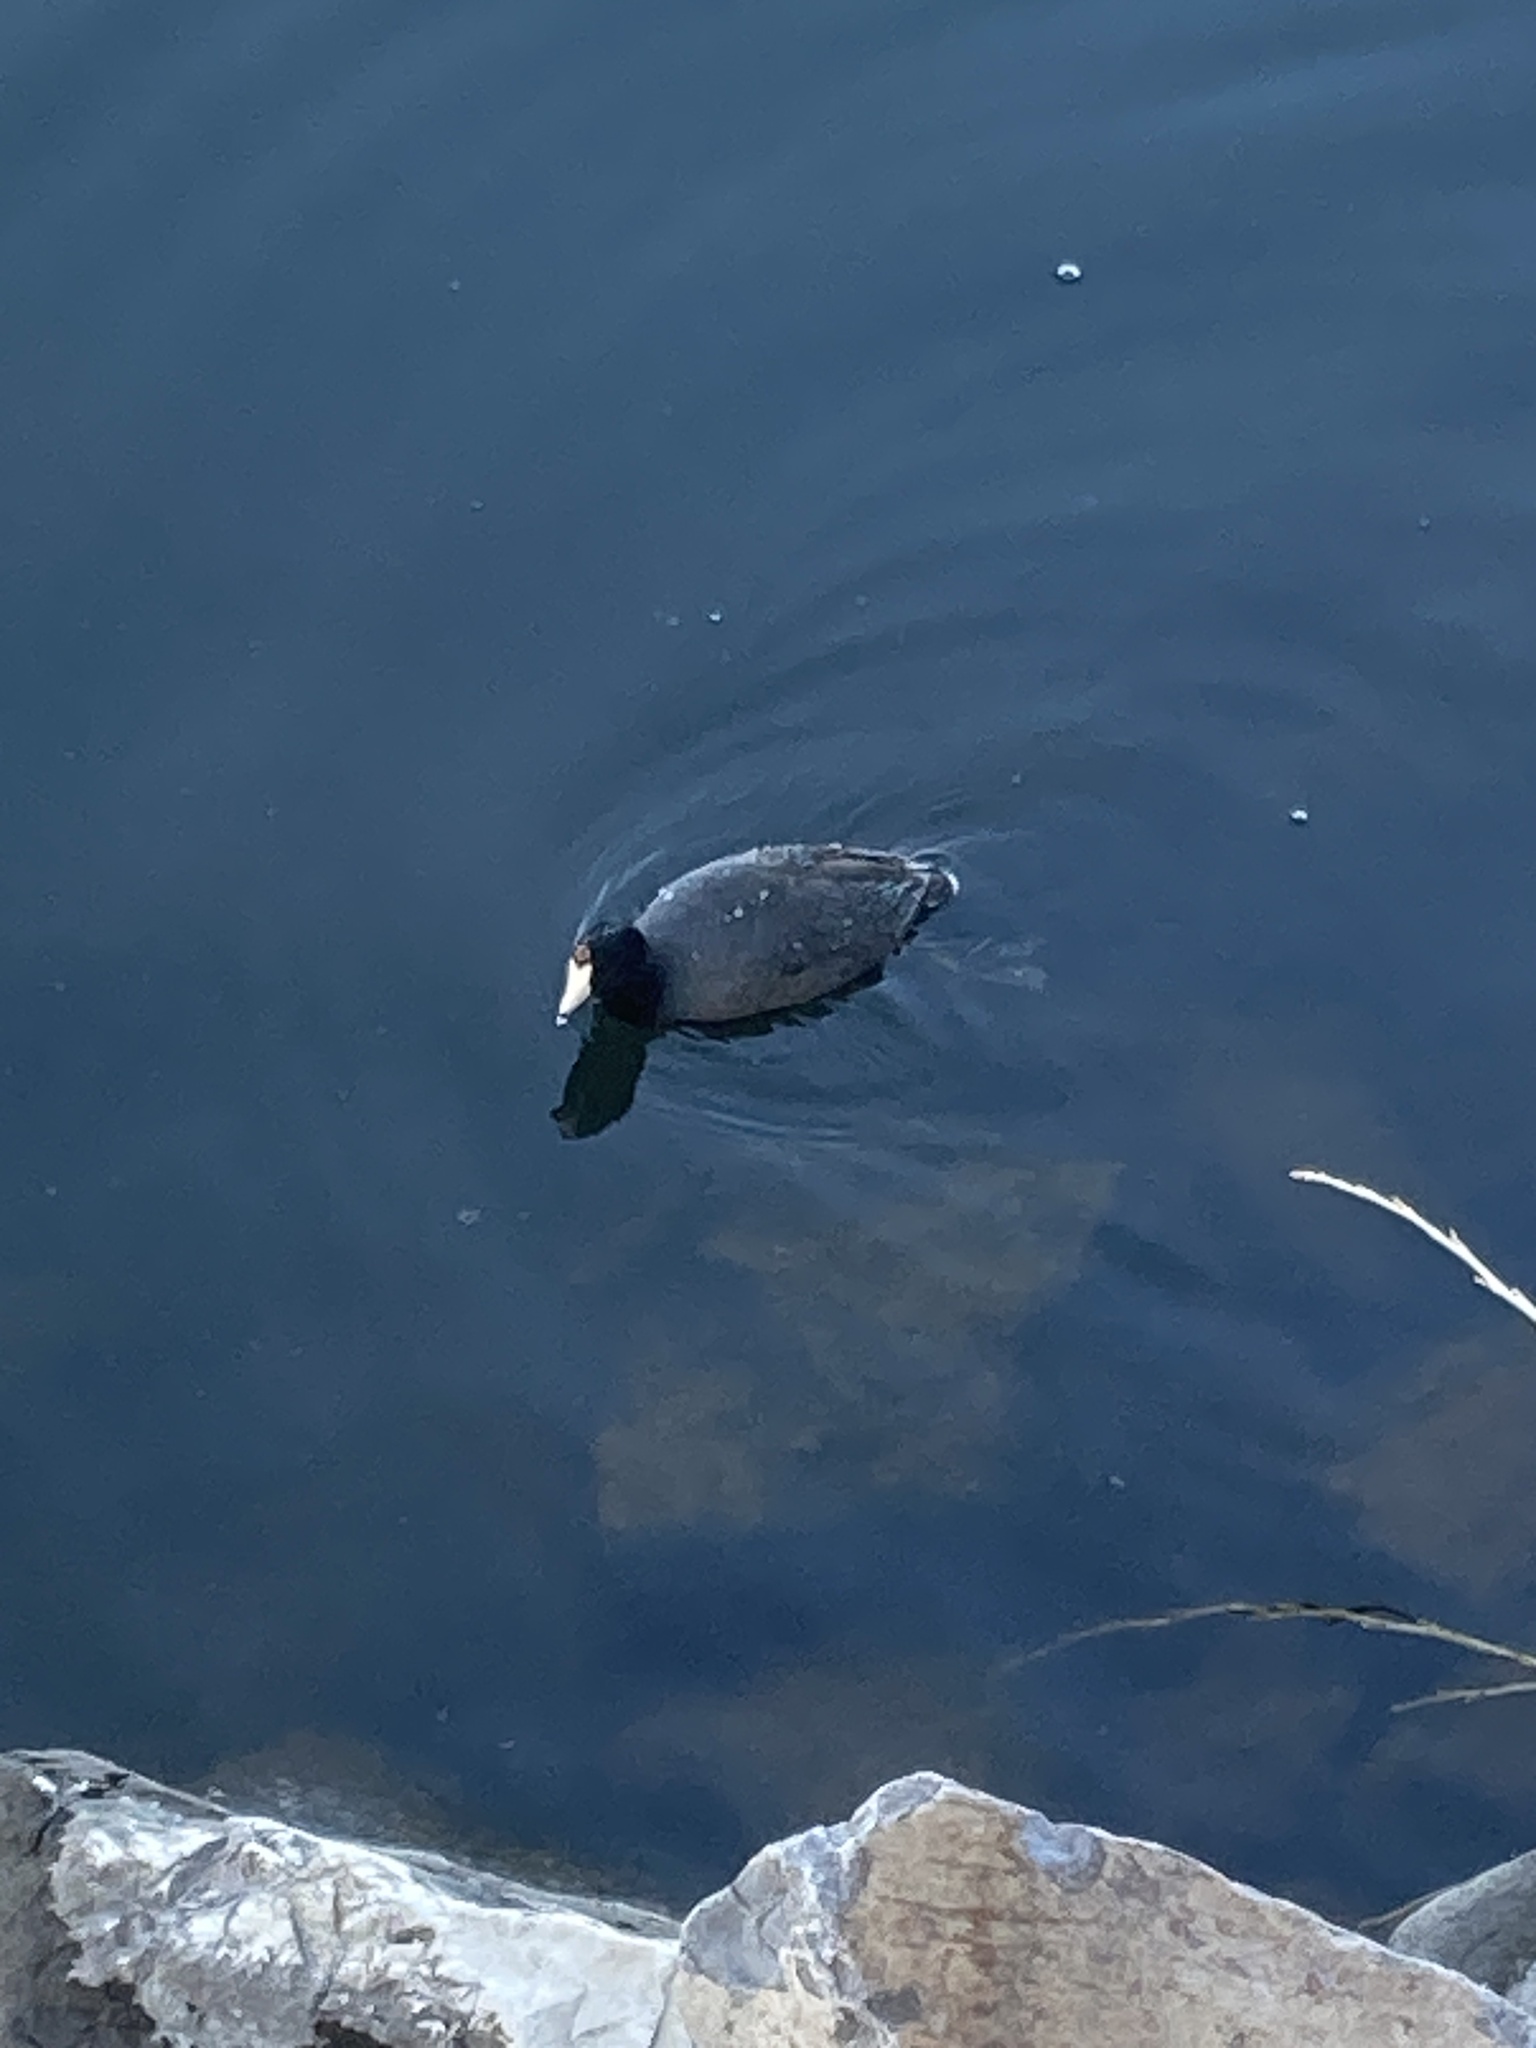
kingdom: Animalia
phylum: Chordata
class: Aves
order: Gruiformes
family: Rallidae
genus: Fulica
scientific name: Fulica americana
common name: American coot
